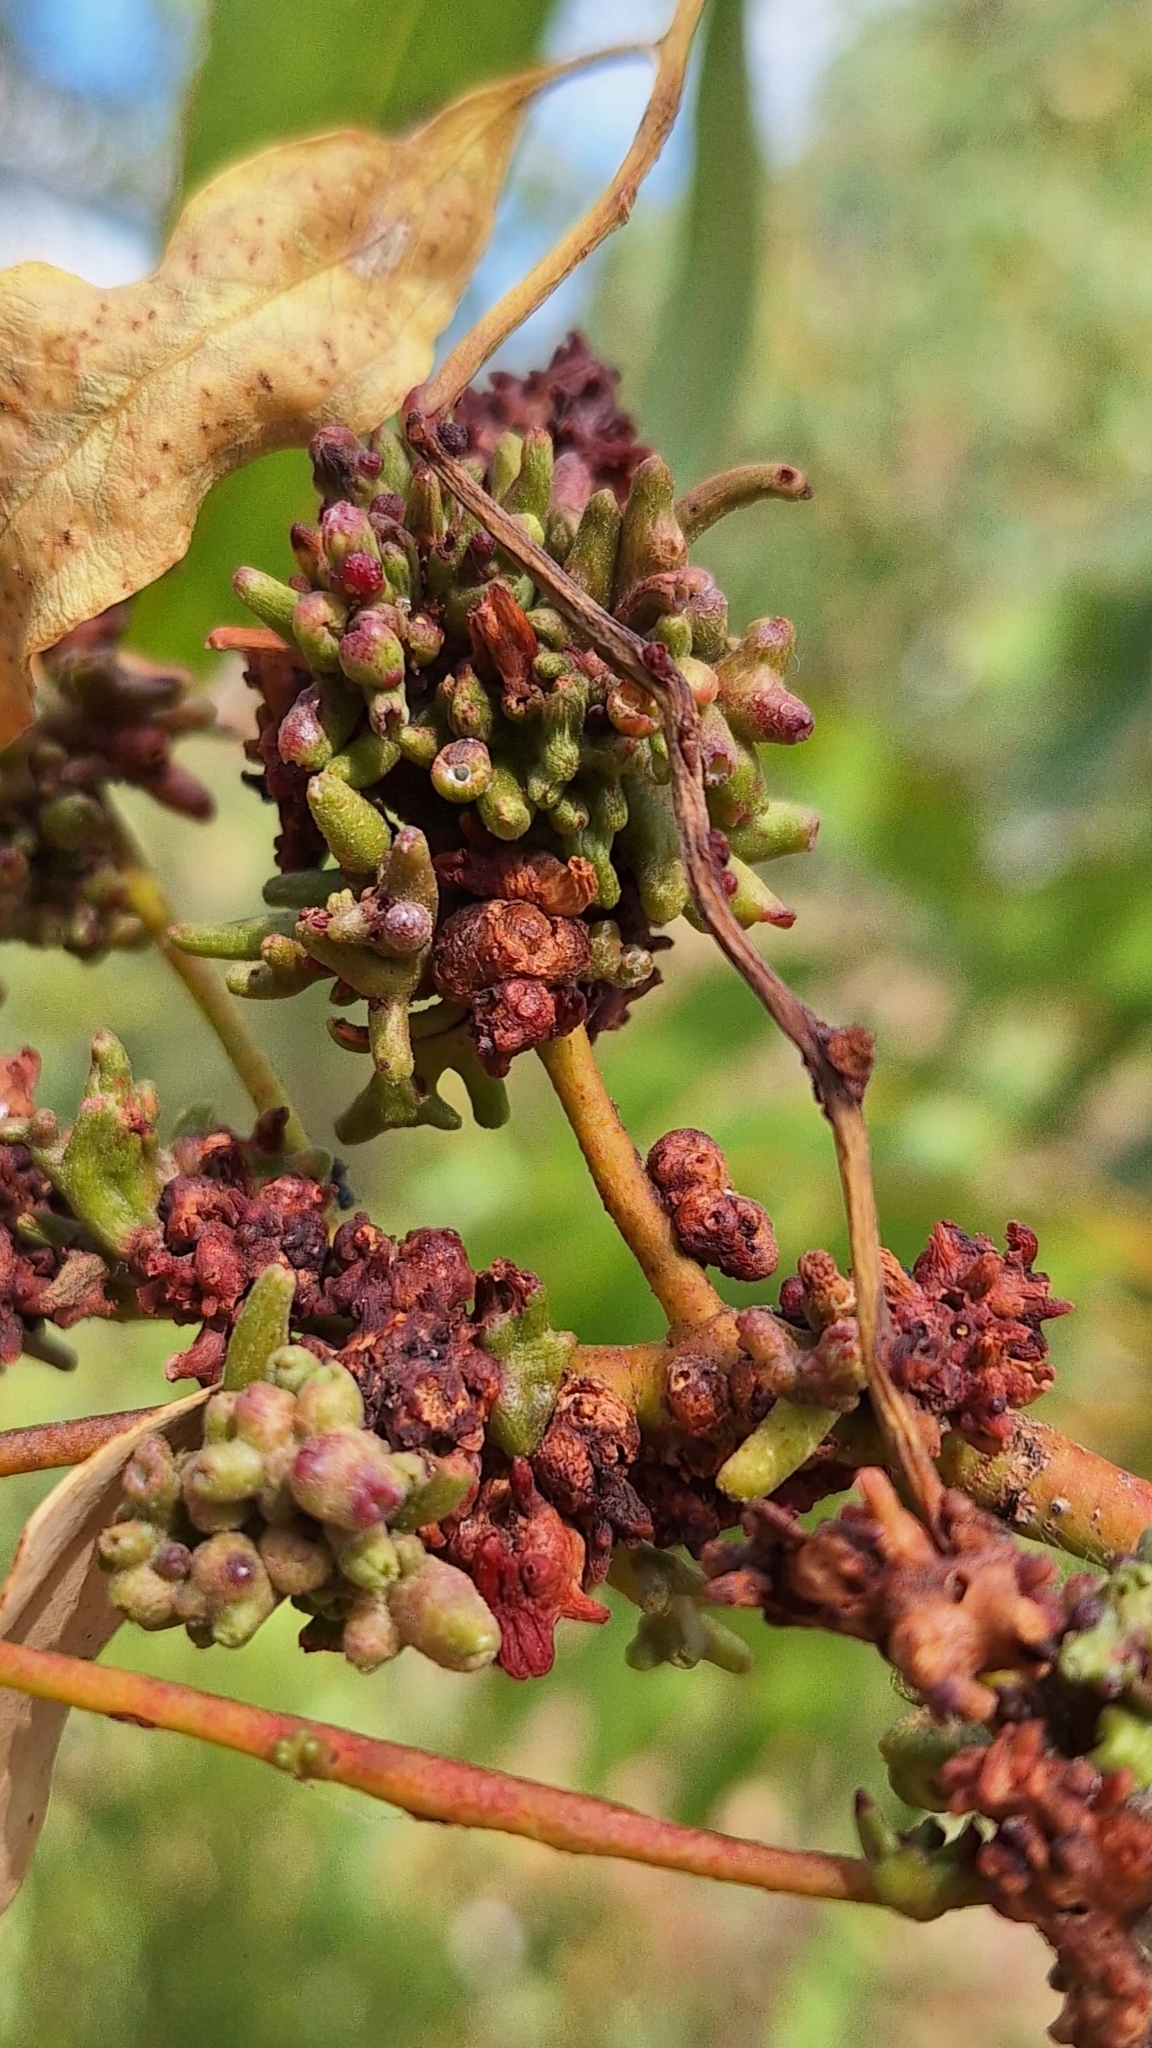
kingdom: Animalia
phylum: Arthropoda
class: Insecta
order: Hemiptera
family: Eriococcidae
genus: Apiomorpha
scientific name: Apiomorpha munita
